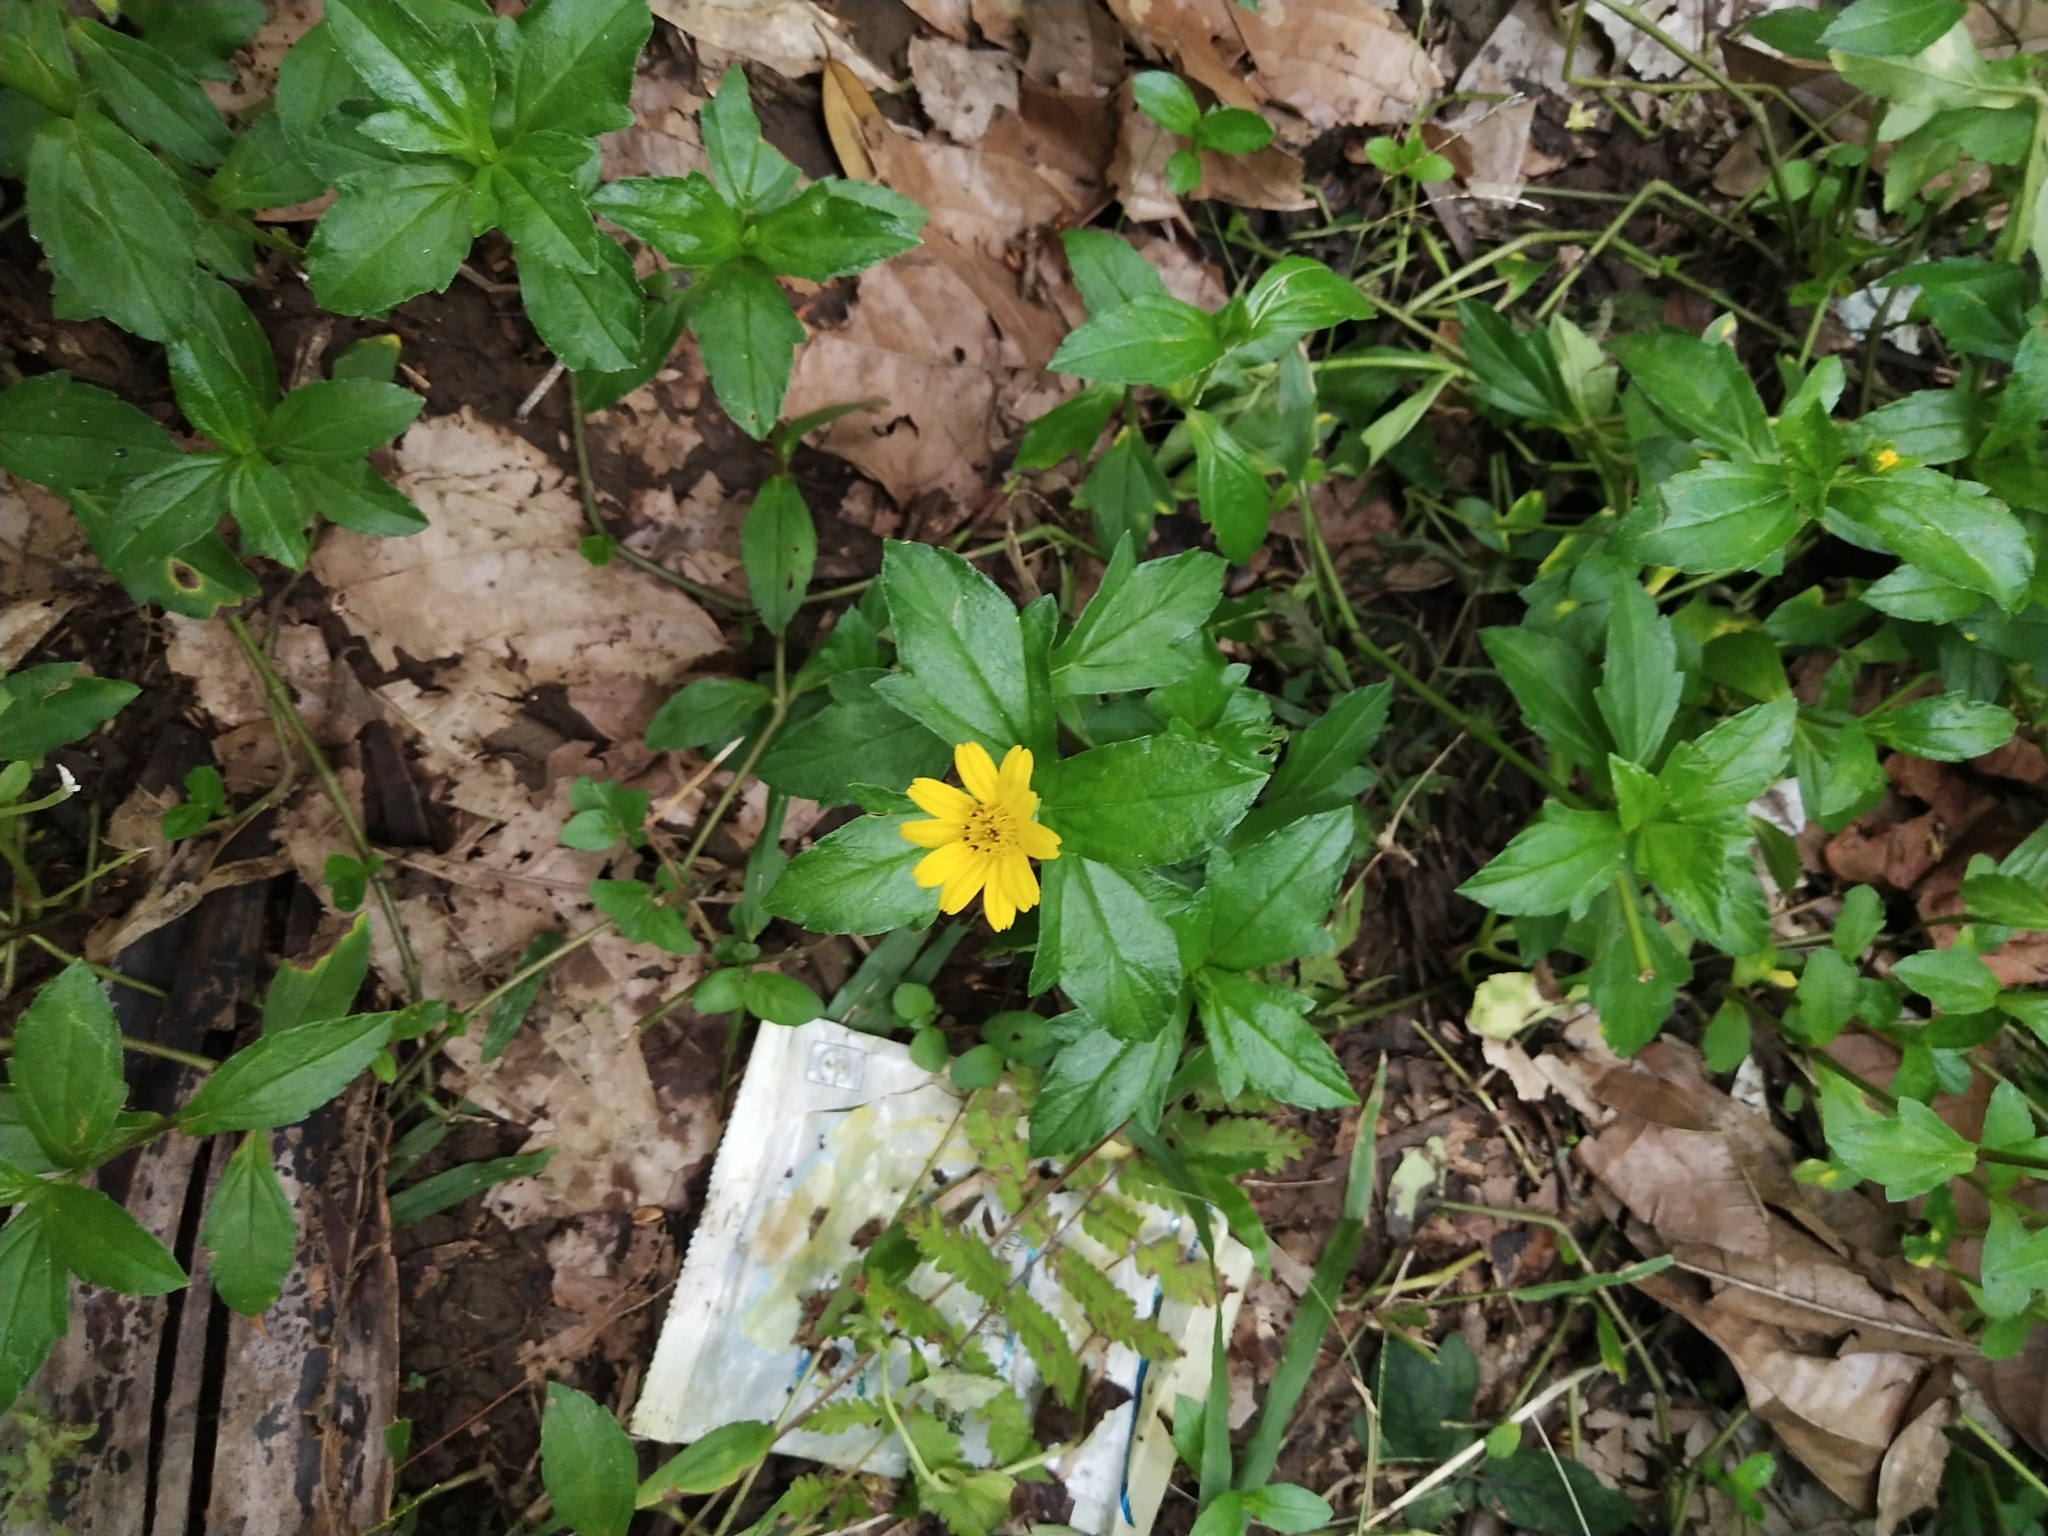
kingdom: Plantae
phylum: Tracheophyta
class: Magnoliopsida
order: Asterales
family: Asteraceae
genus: Sphagneticola
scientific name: Sphagneticola trilobata
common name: Bay biscayne creeping-oxeye
